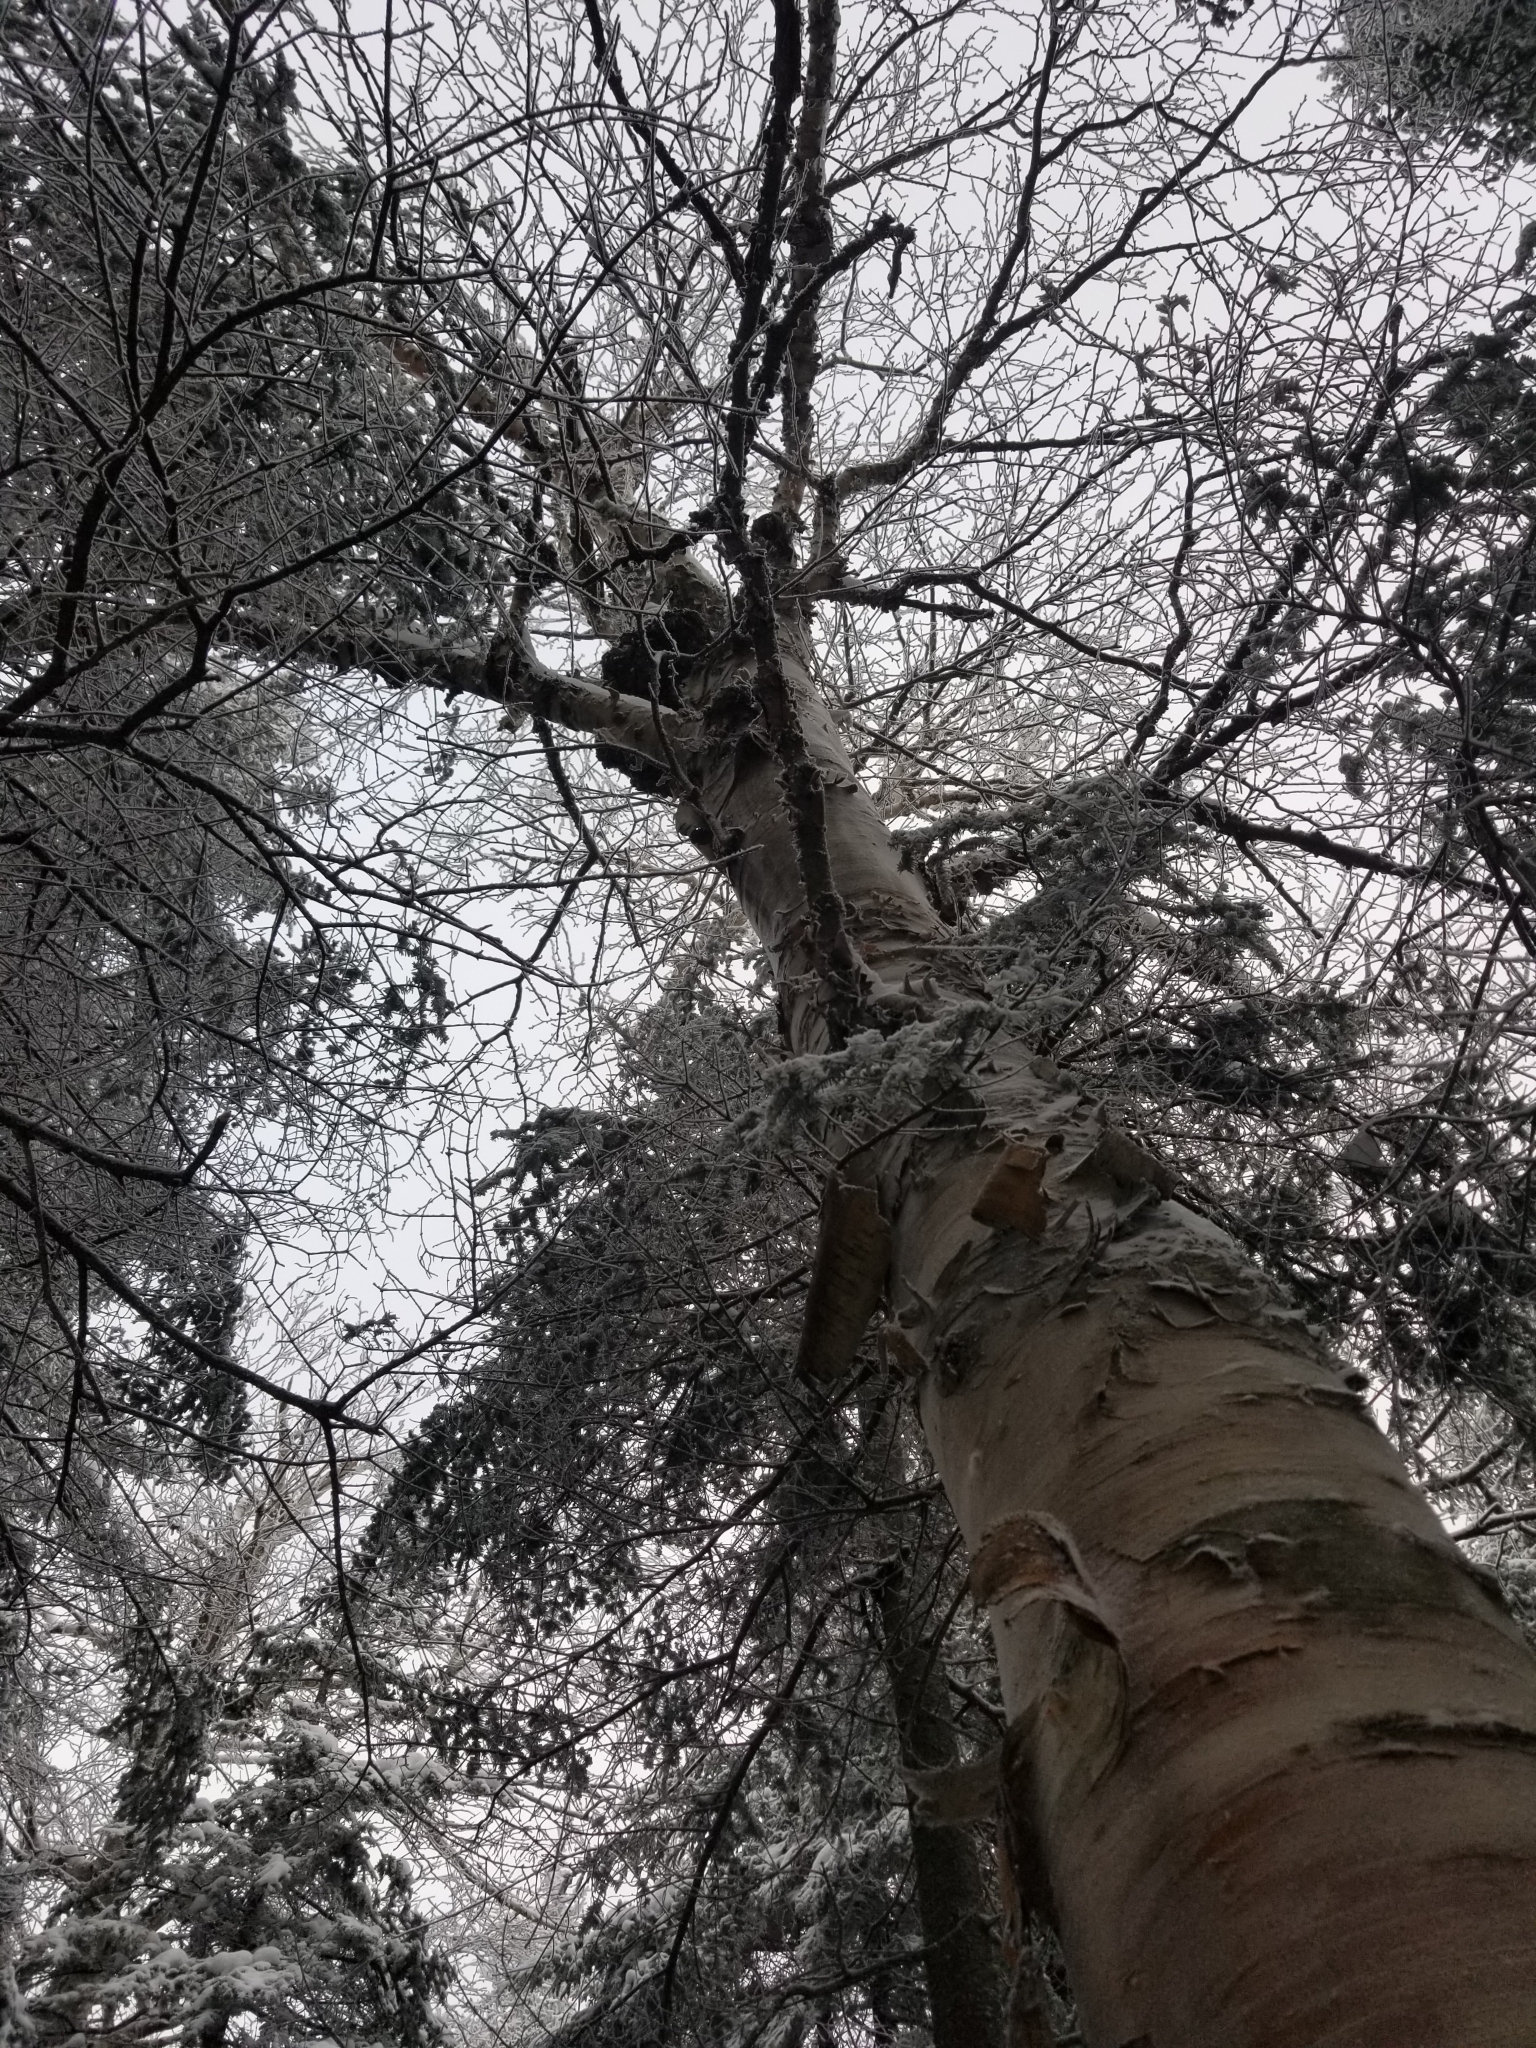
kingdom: Plantae
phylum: Tracheophyta
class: Magnoliopsida
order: Fagales
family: Betulaceae
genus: Betula
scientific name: Betula papyrifera
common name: Paper birch
